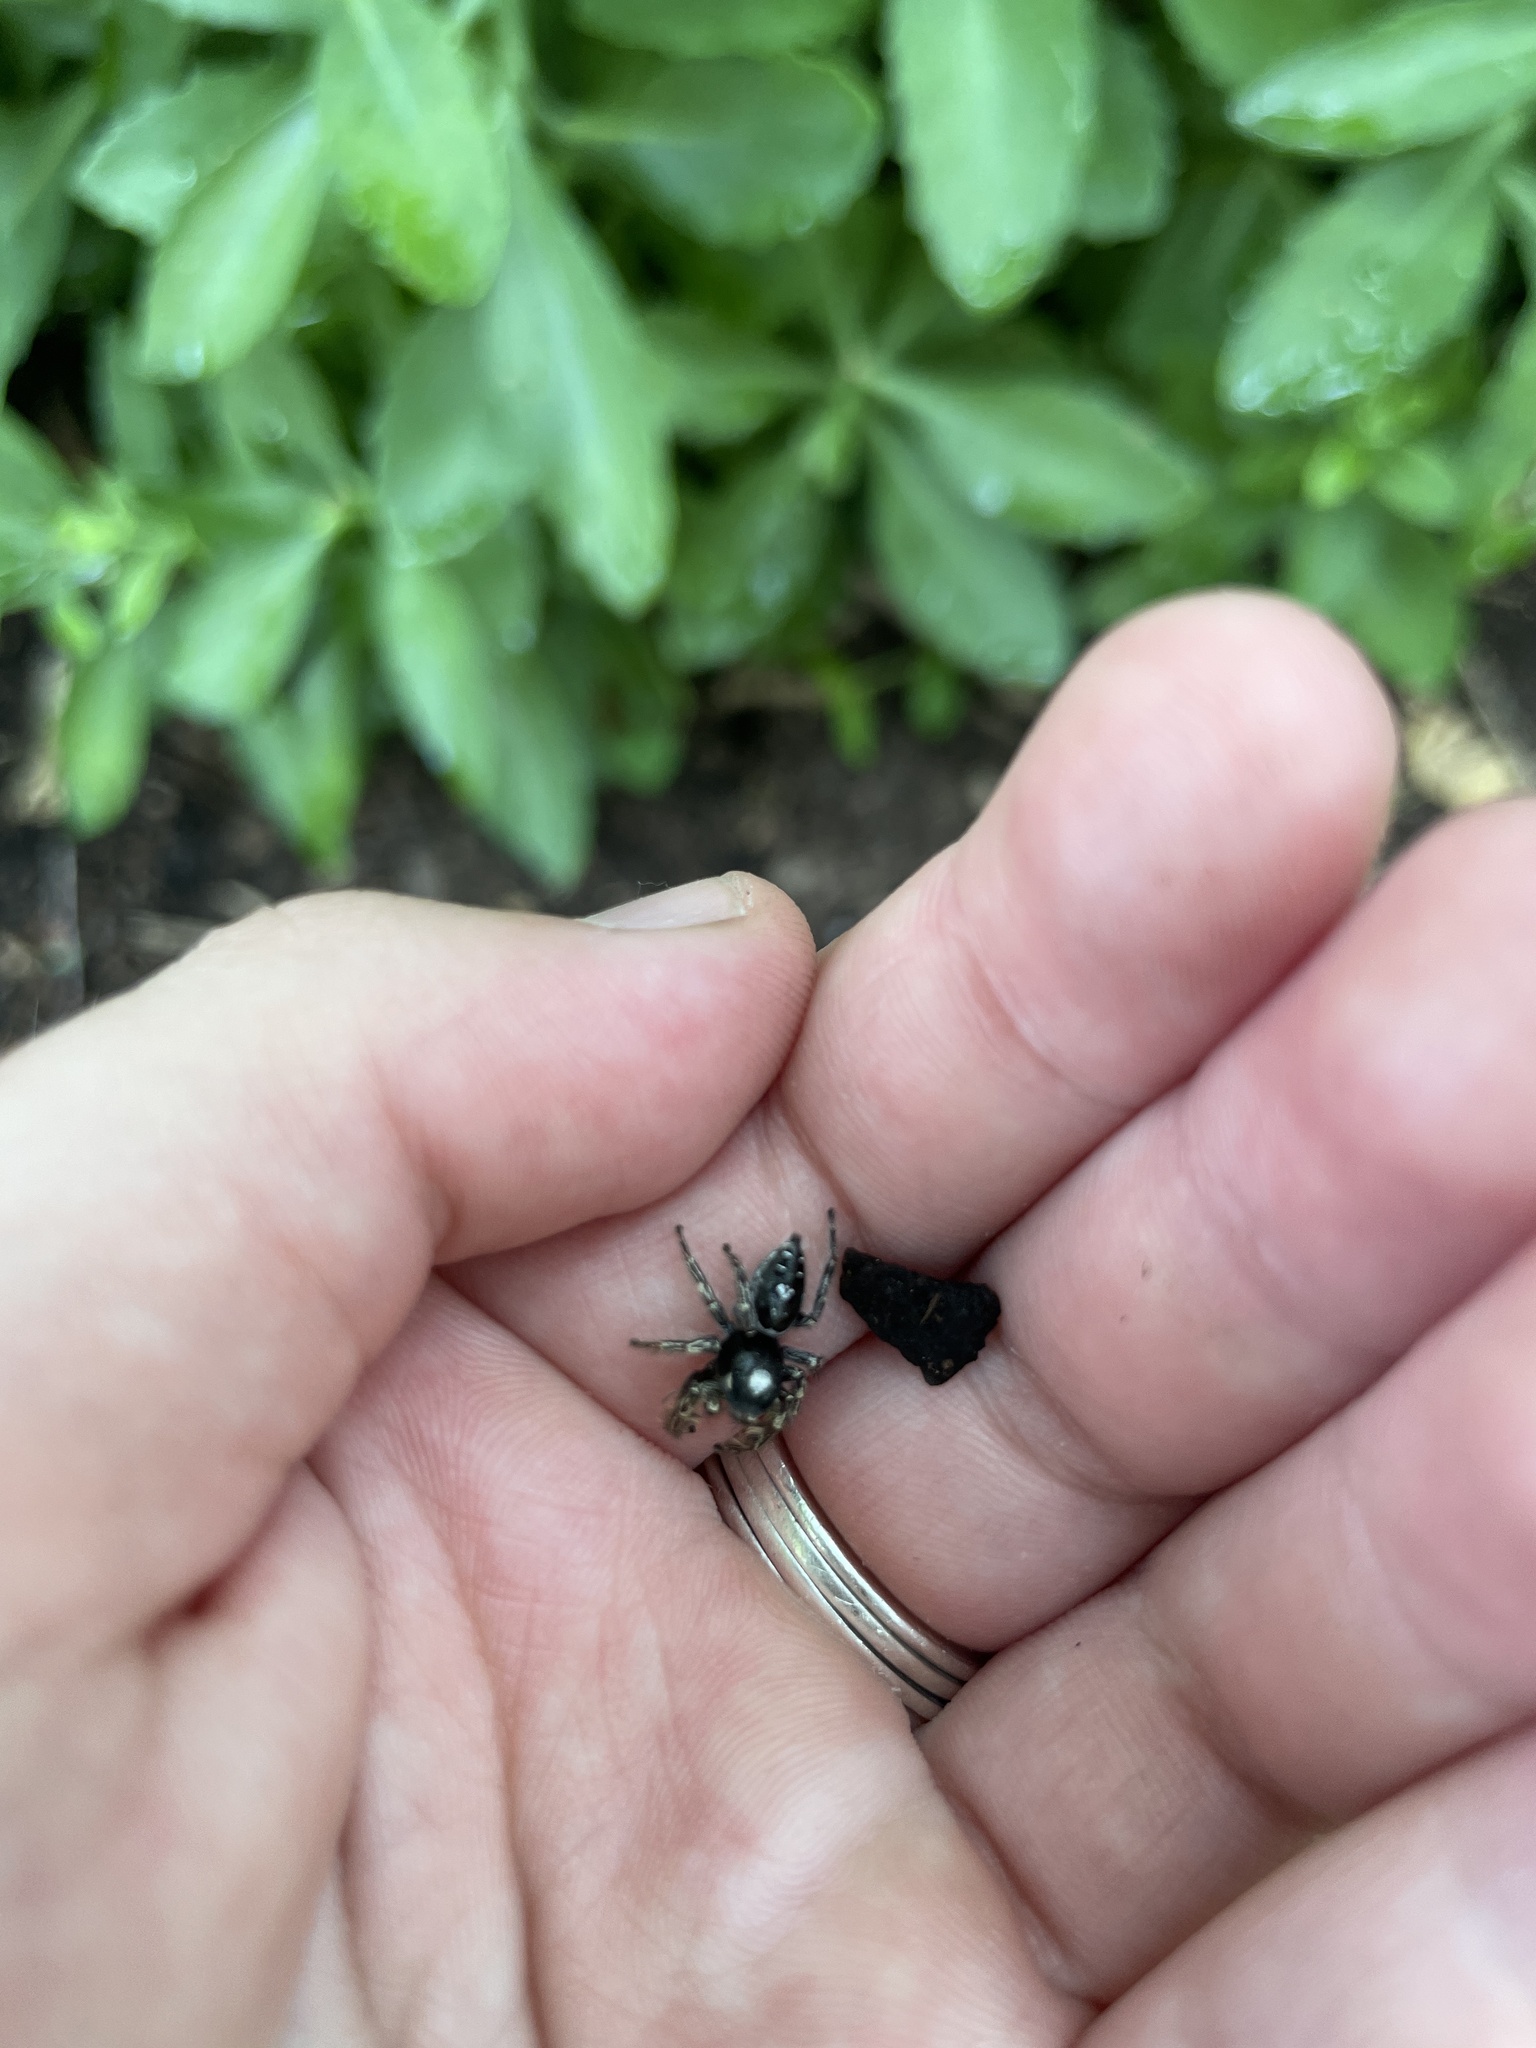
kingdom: Animalia
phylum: Arthropoda
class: Arachnida
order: Araneae
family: Salticidae
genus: Phidippus
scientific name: Phidippus putnami
